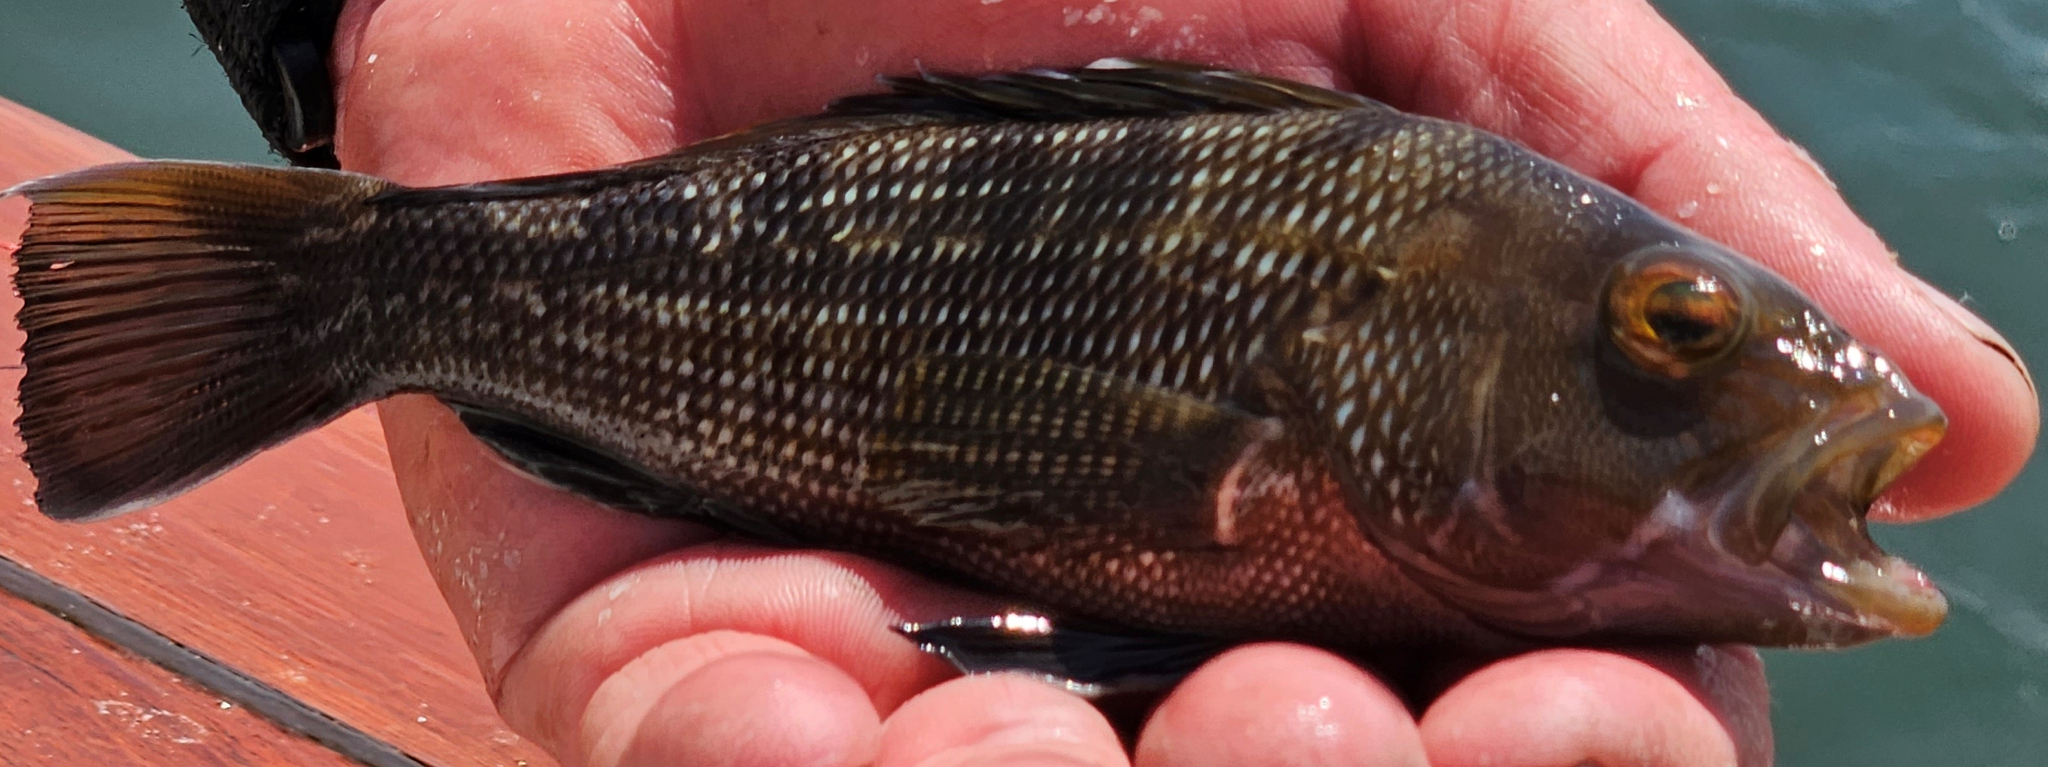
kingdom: Animalia
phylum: Chordata
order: Perciformes
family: Serranidae
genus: Centropristis
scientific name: Centropristis striata
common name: Black sea bass
